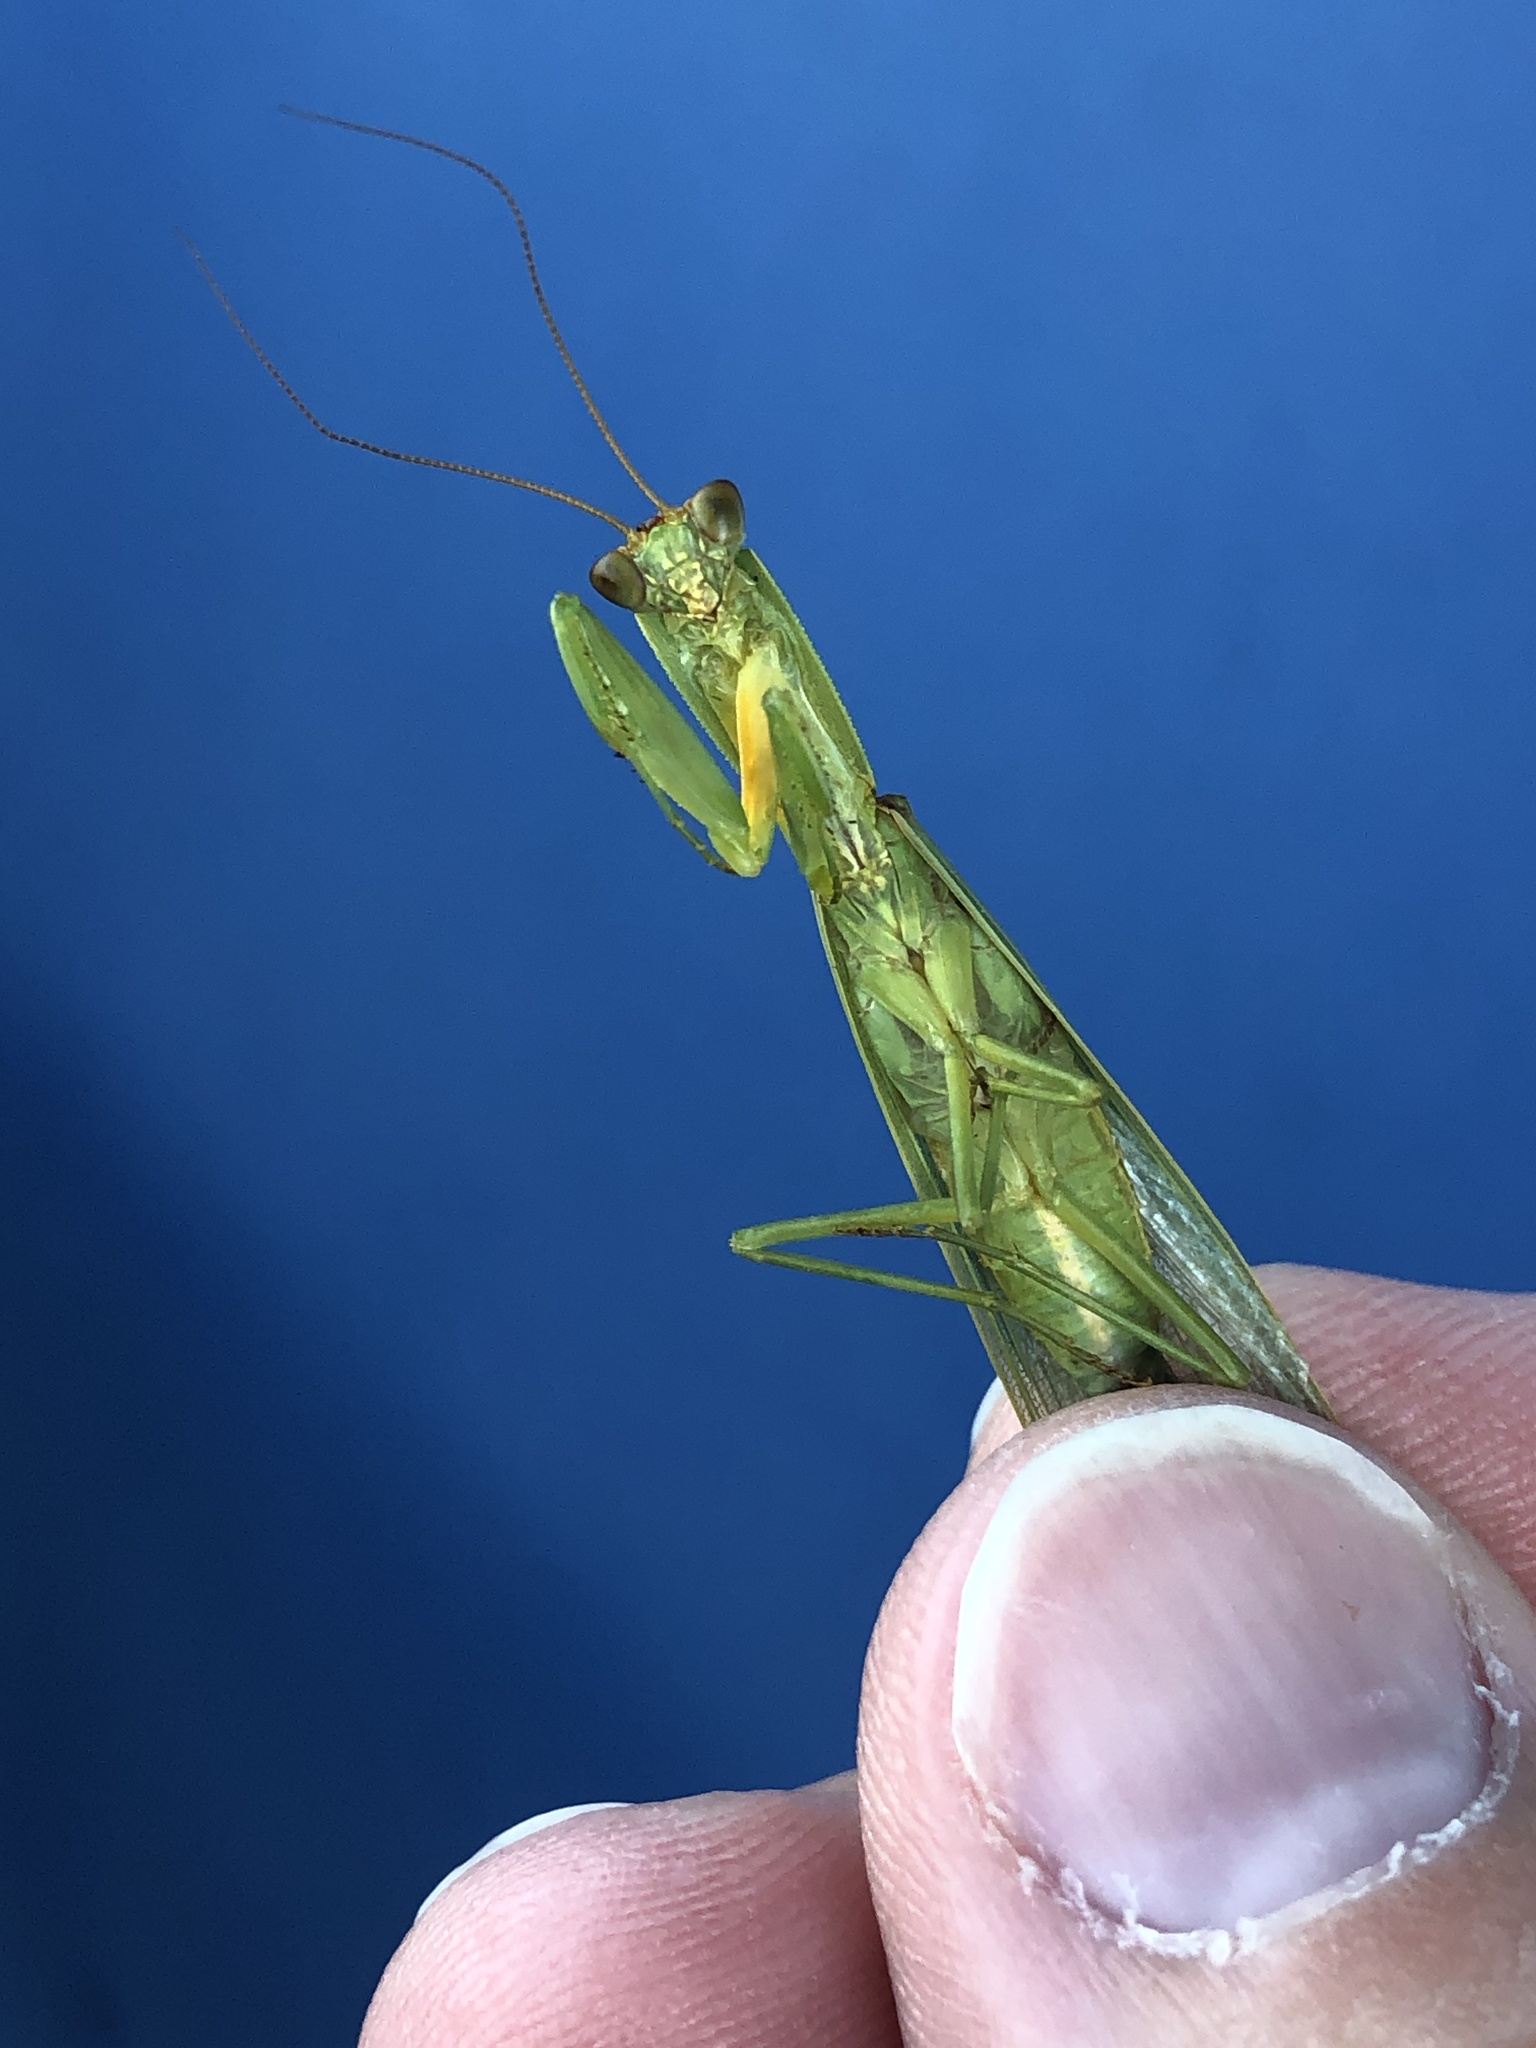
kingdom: Animalia
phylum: Arthropoda
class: Insecta
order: Mantodea
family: Mantidae
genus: Orthodera
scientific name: Orthodera novaezealandiae
